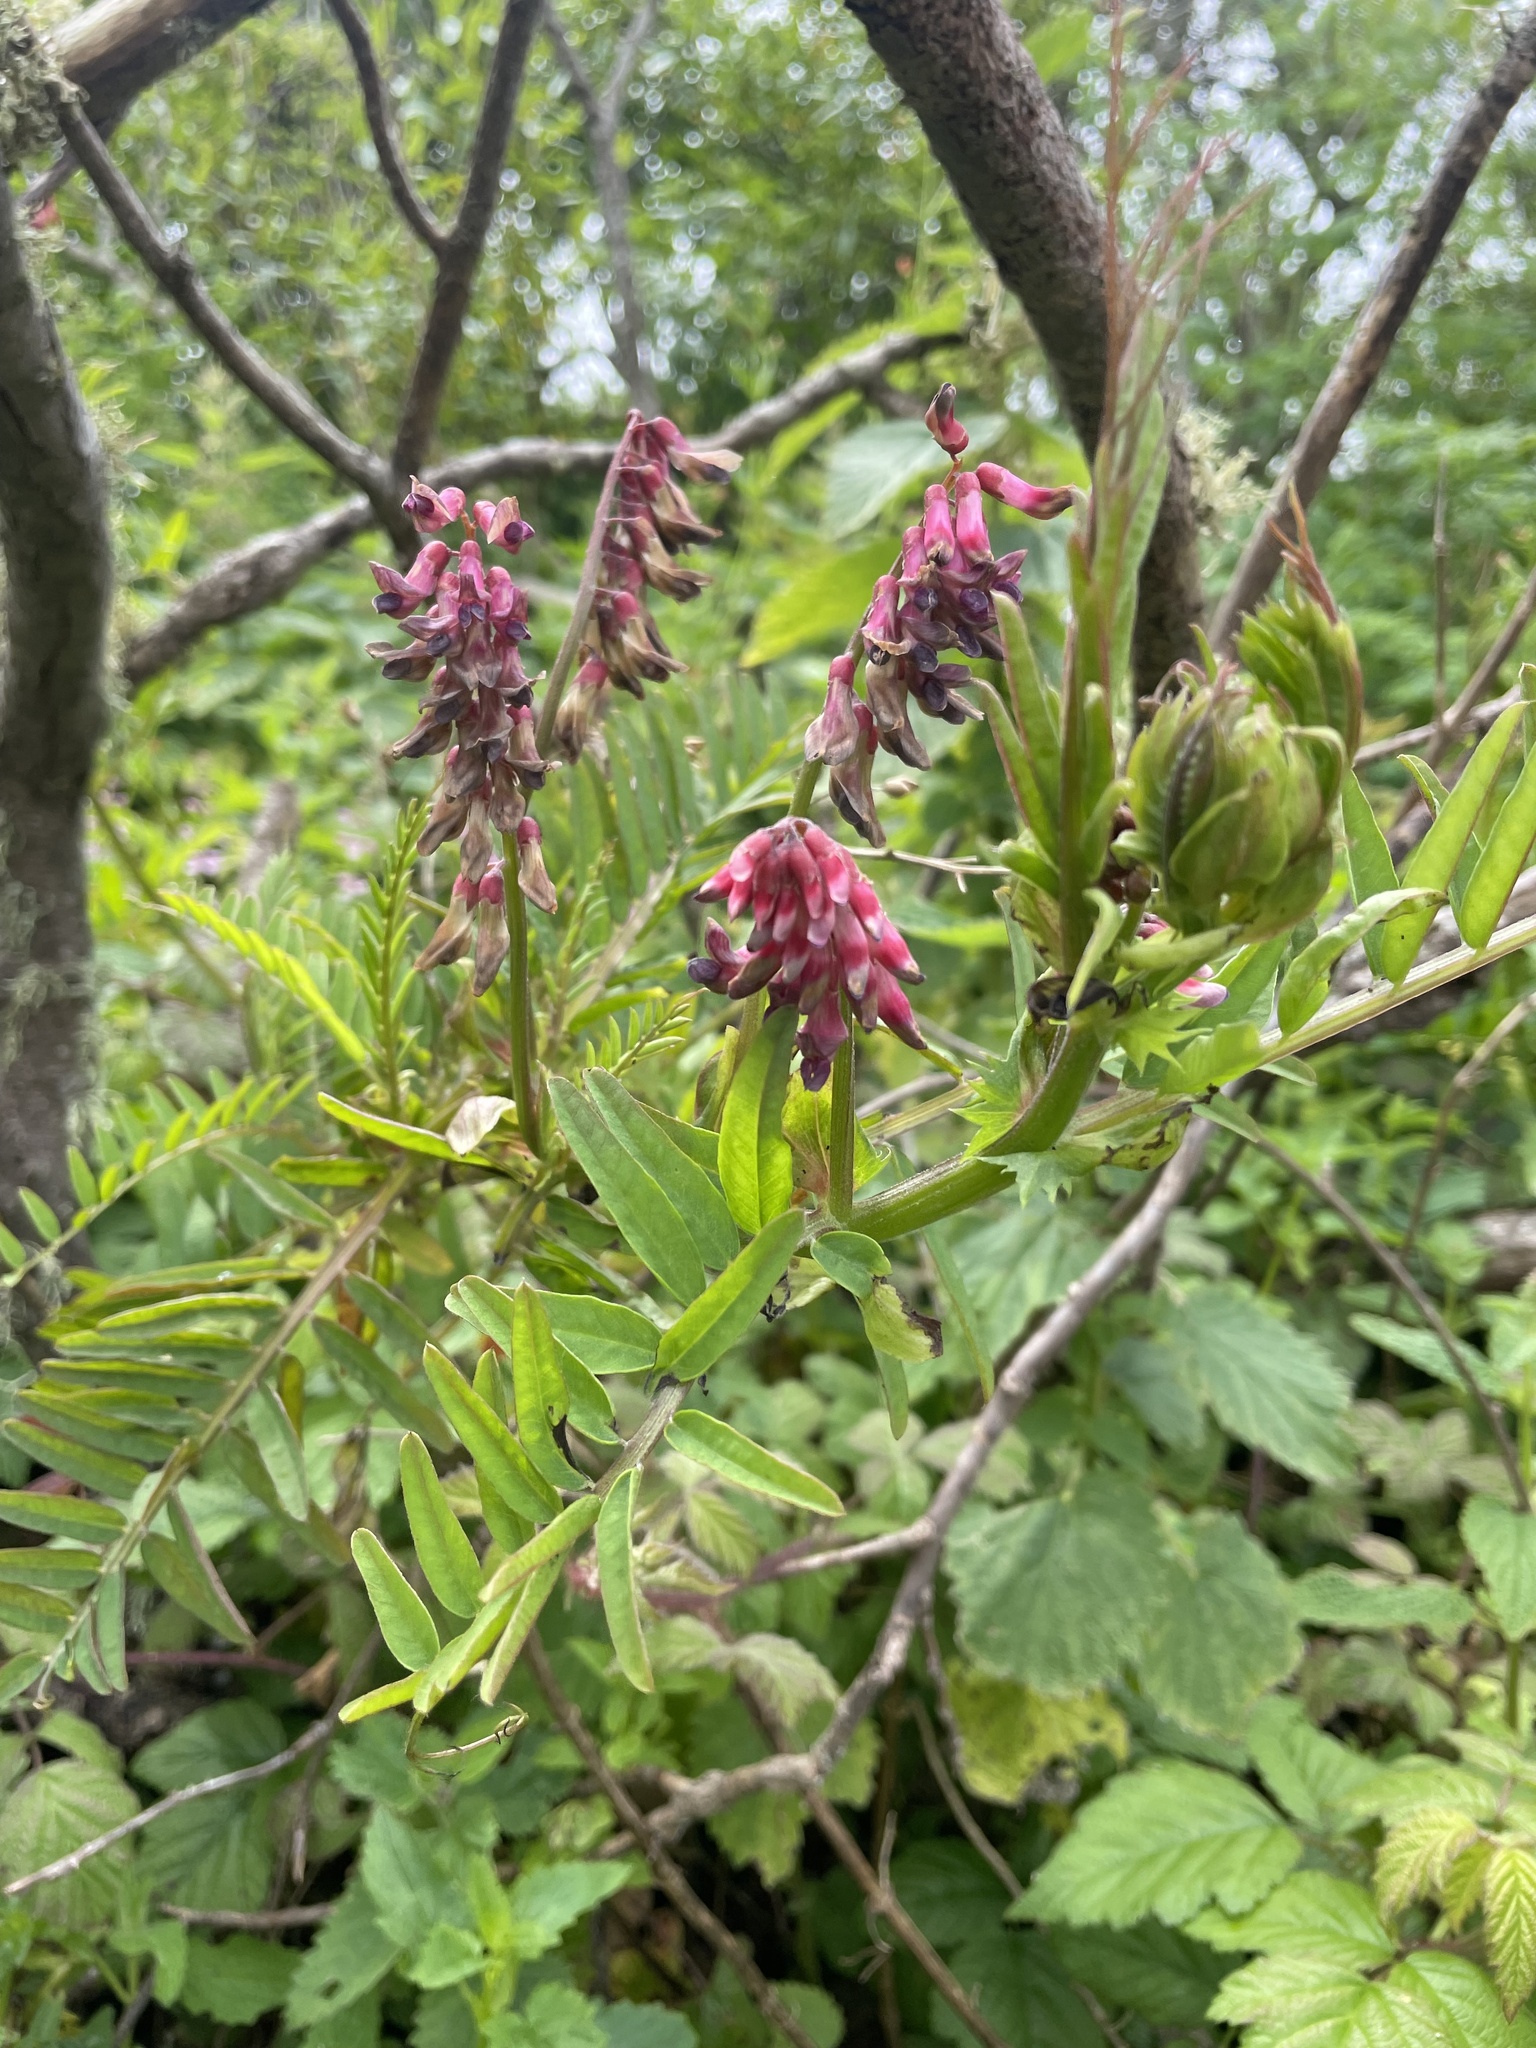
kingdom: Plantae
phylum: Tracheophyta
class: Magnoliopsida
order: Fabales
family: Fabaceae
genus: Vicia
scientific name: Vicia
